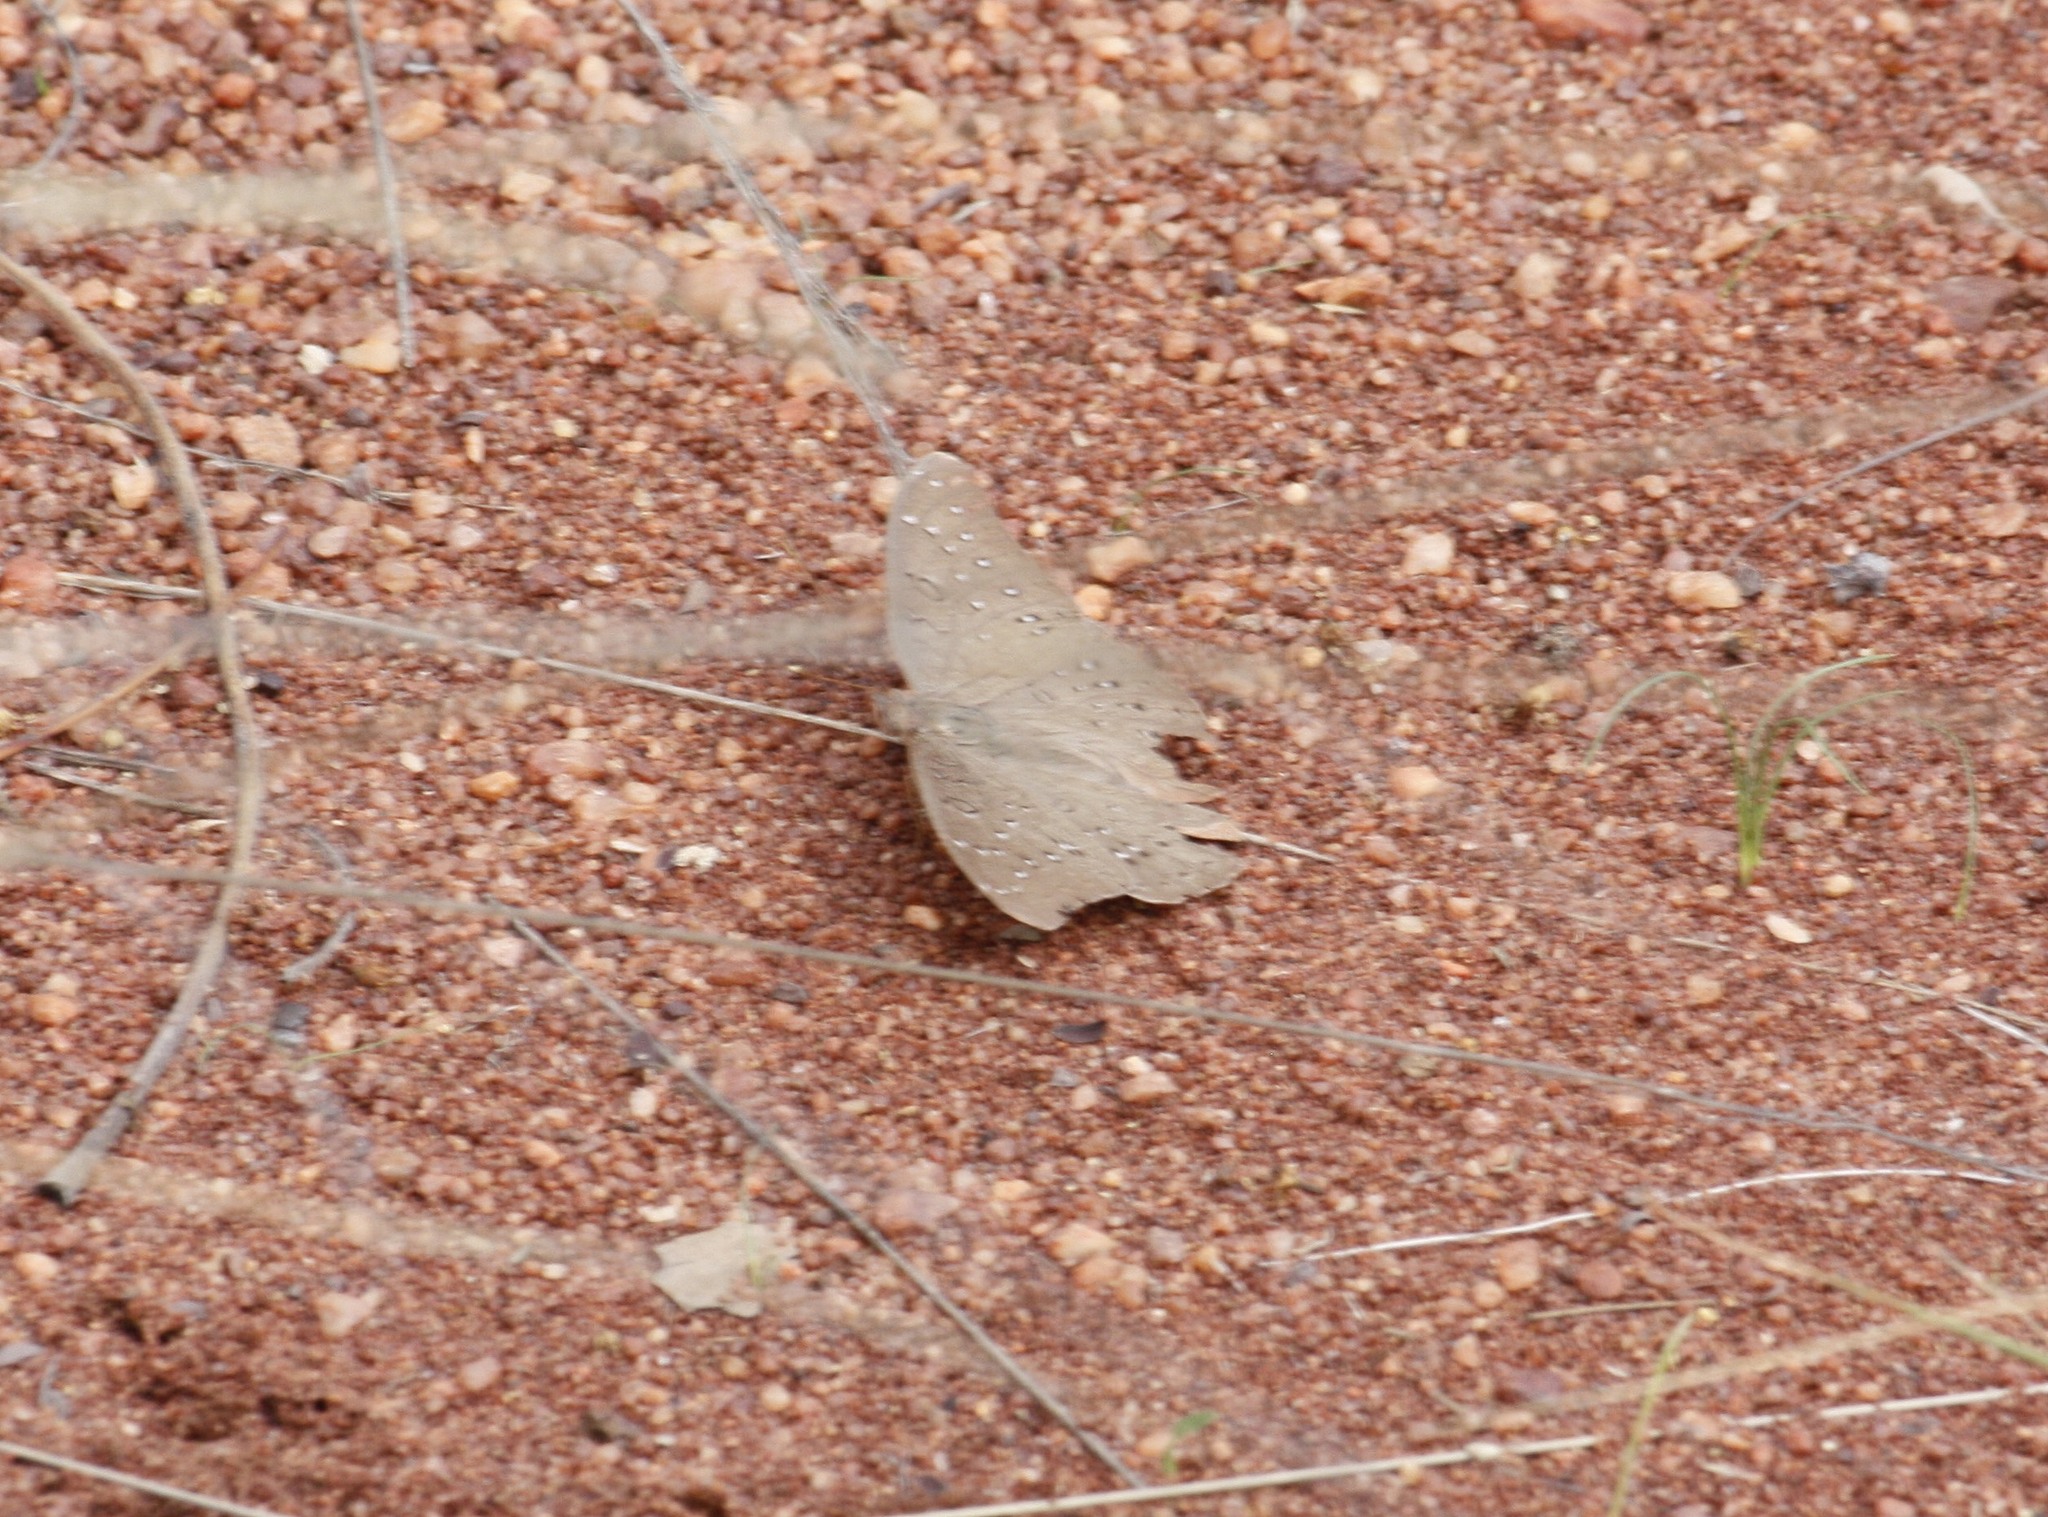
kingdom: Animalia
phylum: Arthropoda
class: Insecta
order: Lepidoptera
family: Nymphalidae
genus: Hamanumida
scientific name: Hamanumida daedalus
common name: Guinea-fowl butterfly
